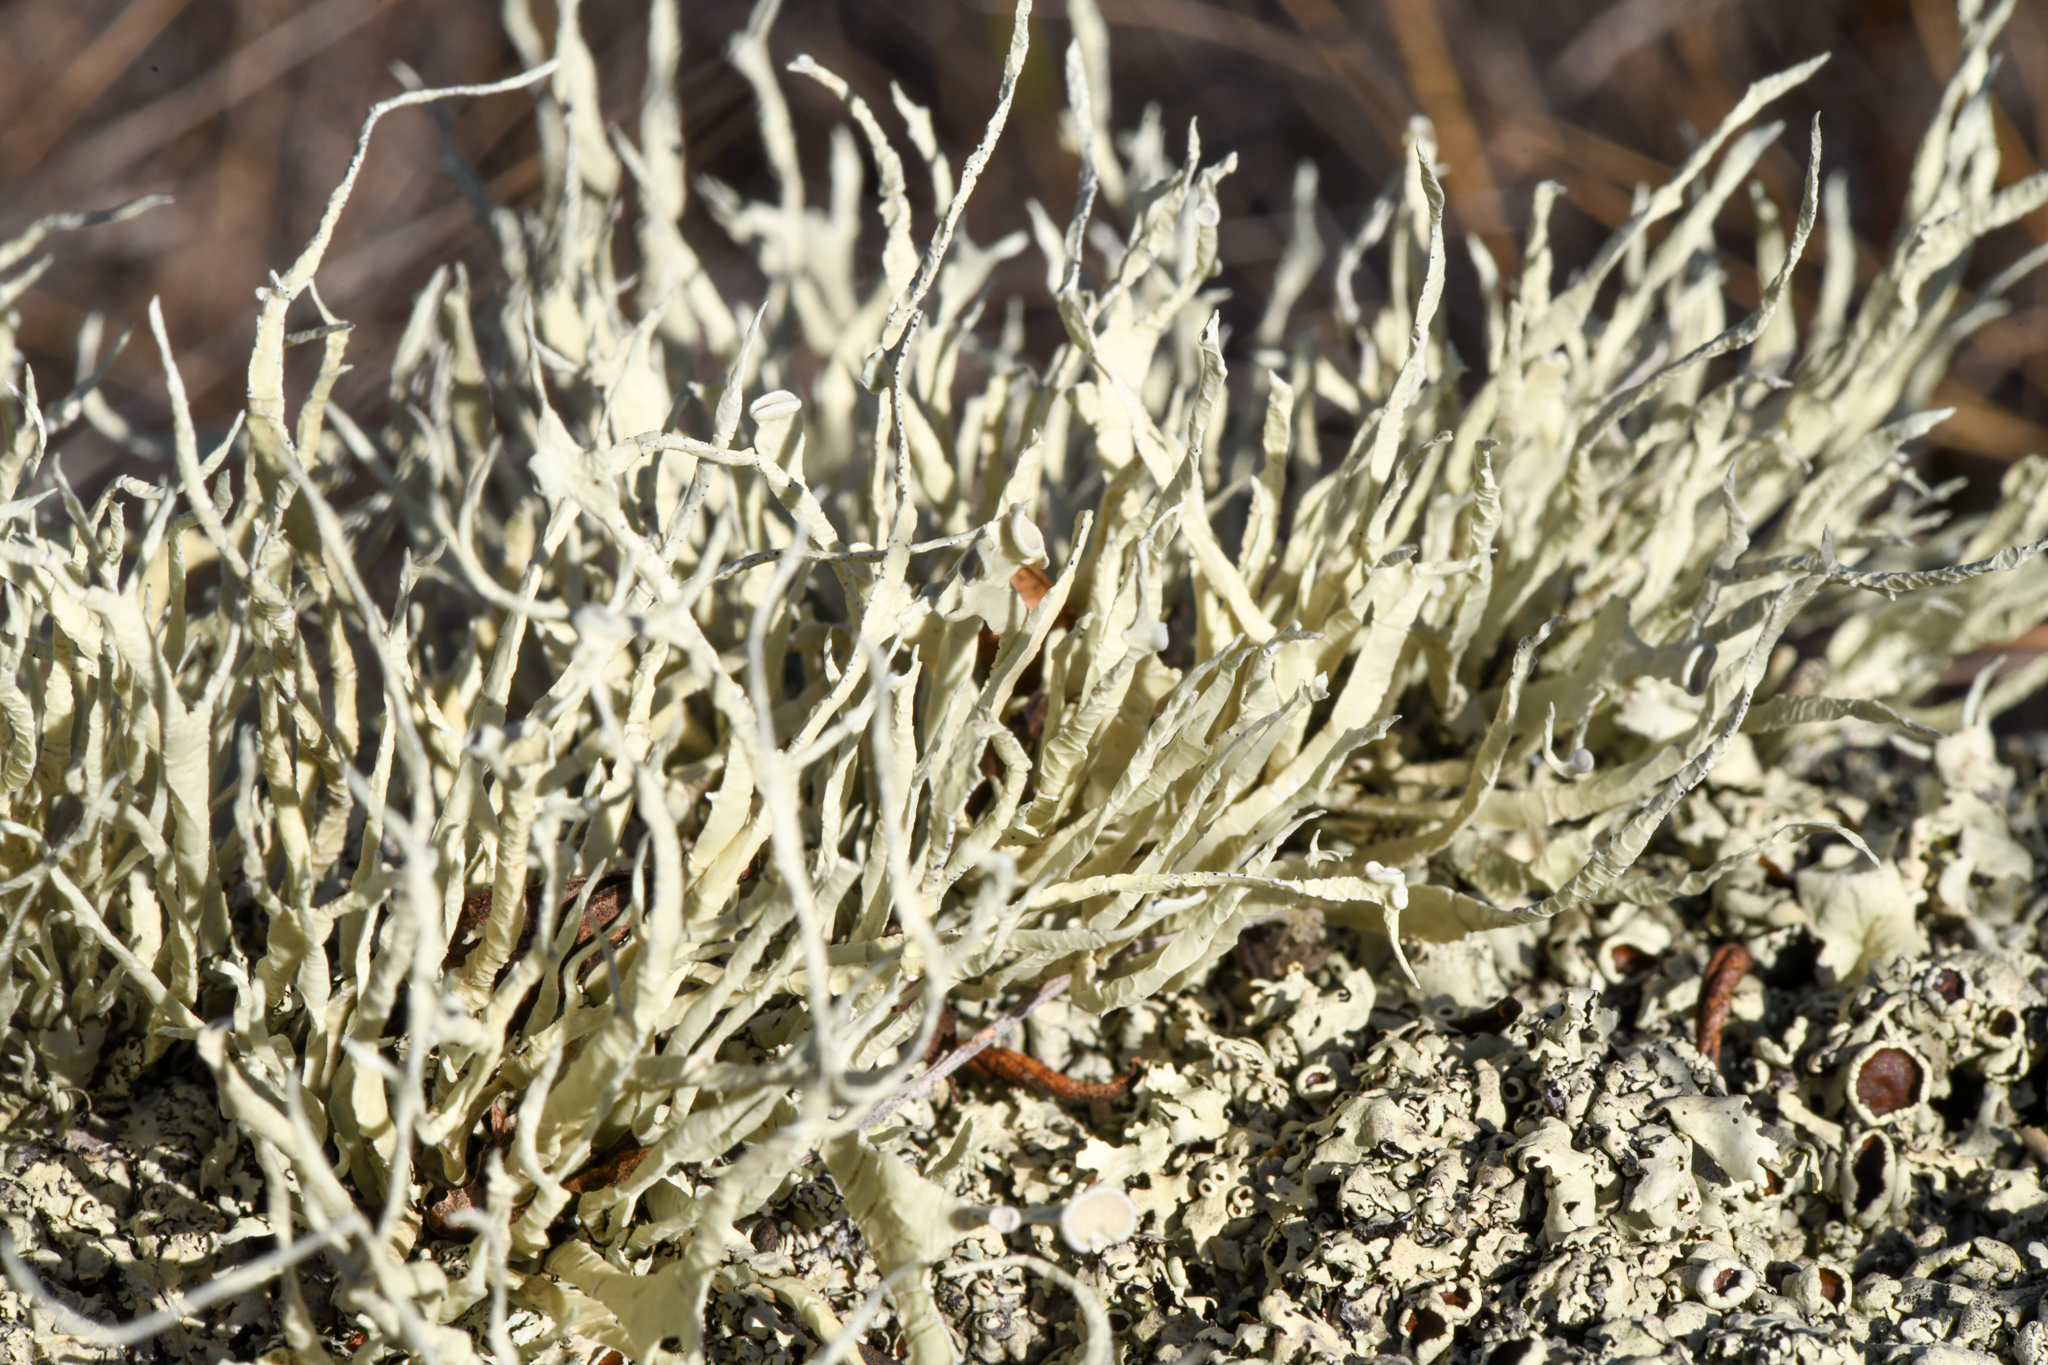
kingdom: Fungi
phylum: Ascomycota
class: Lecanoromycetes
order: Lecanorales
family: Ramalinaceae
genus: Niebla
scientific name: Niebla homalea
